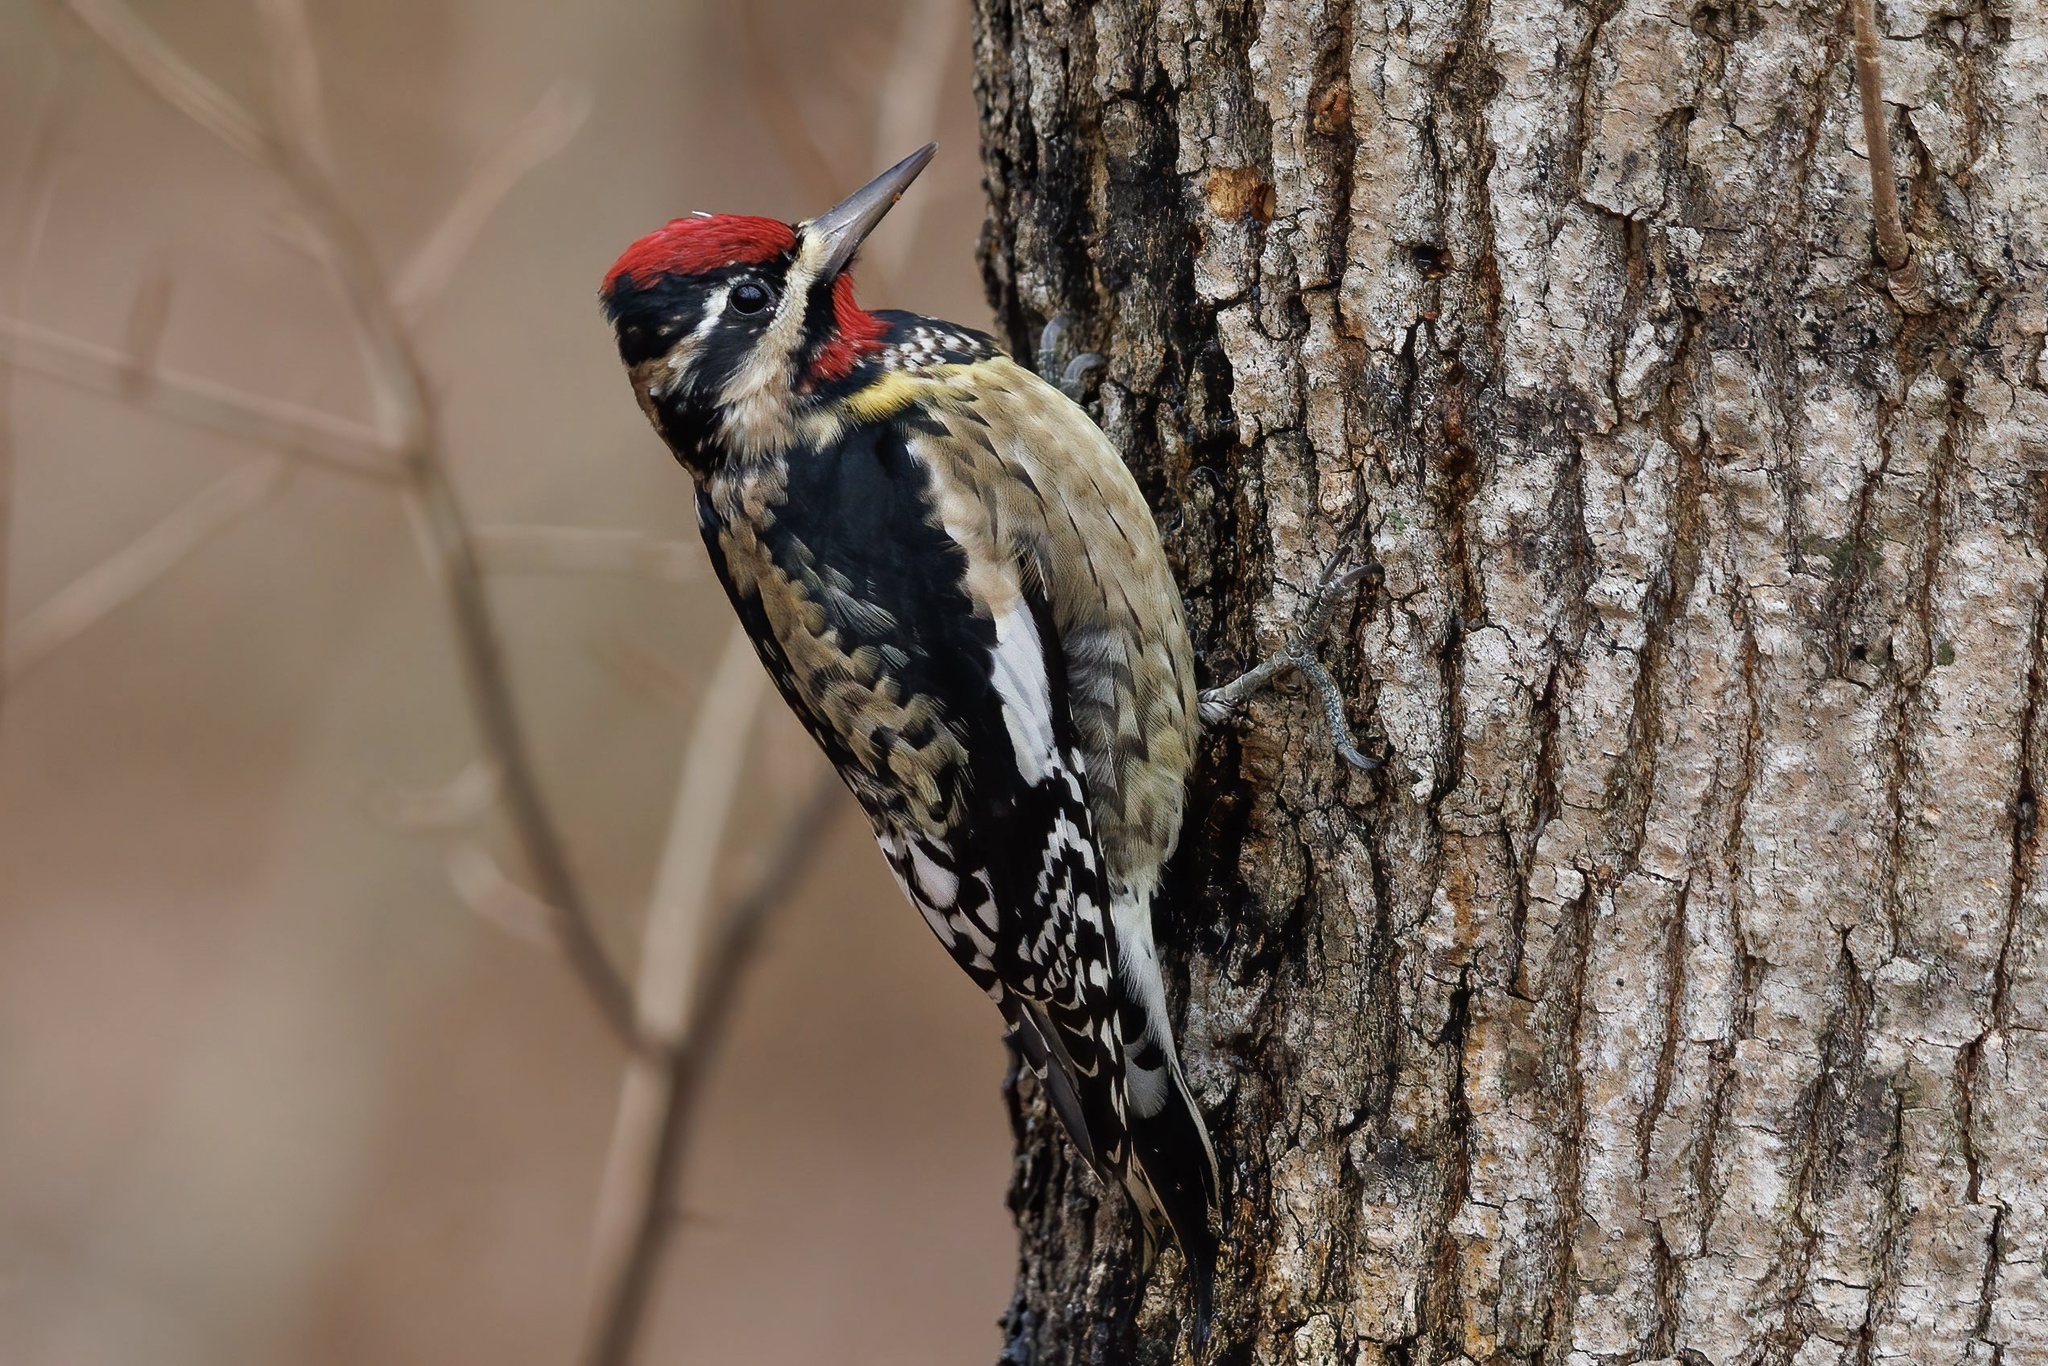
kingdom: Animalia
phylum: Chordata
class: Aves
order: Piciformes
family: Picidae
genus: Sphyrapicus
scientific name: Sphyrapicus varius
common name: Yellow-bellied sapsucker
